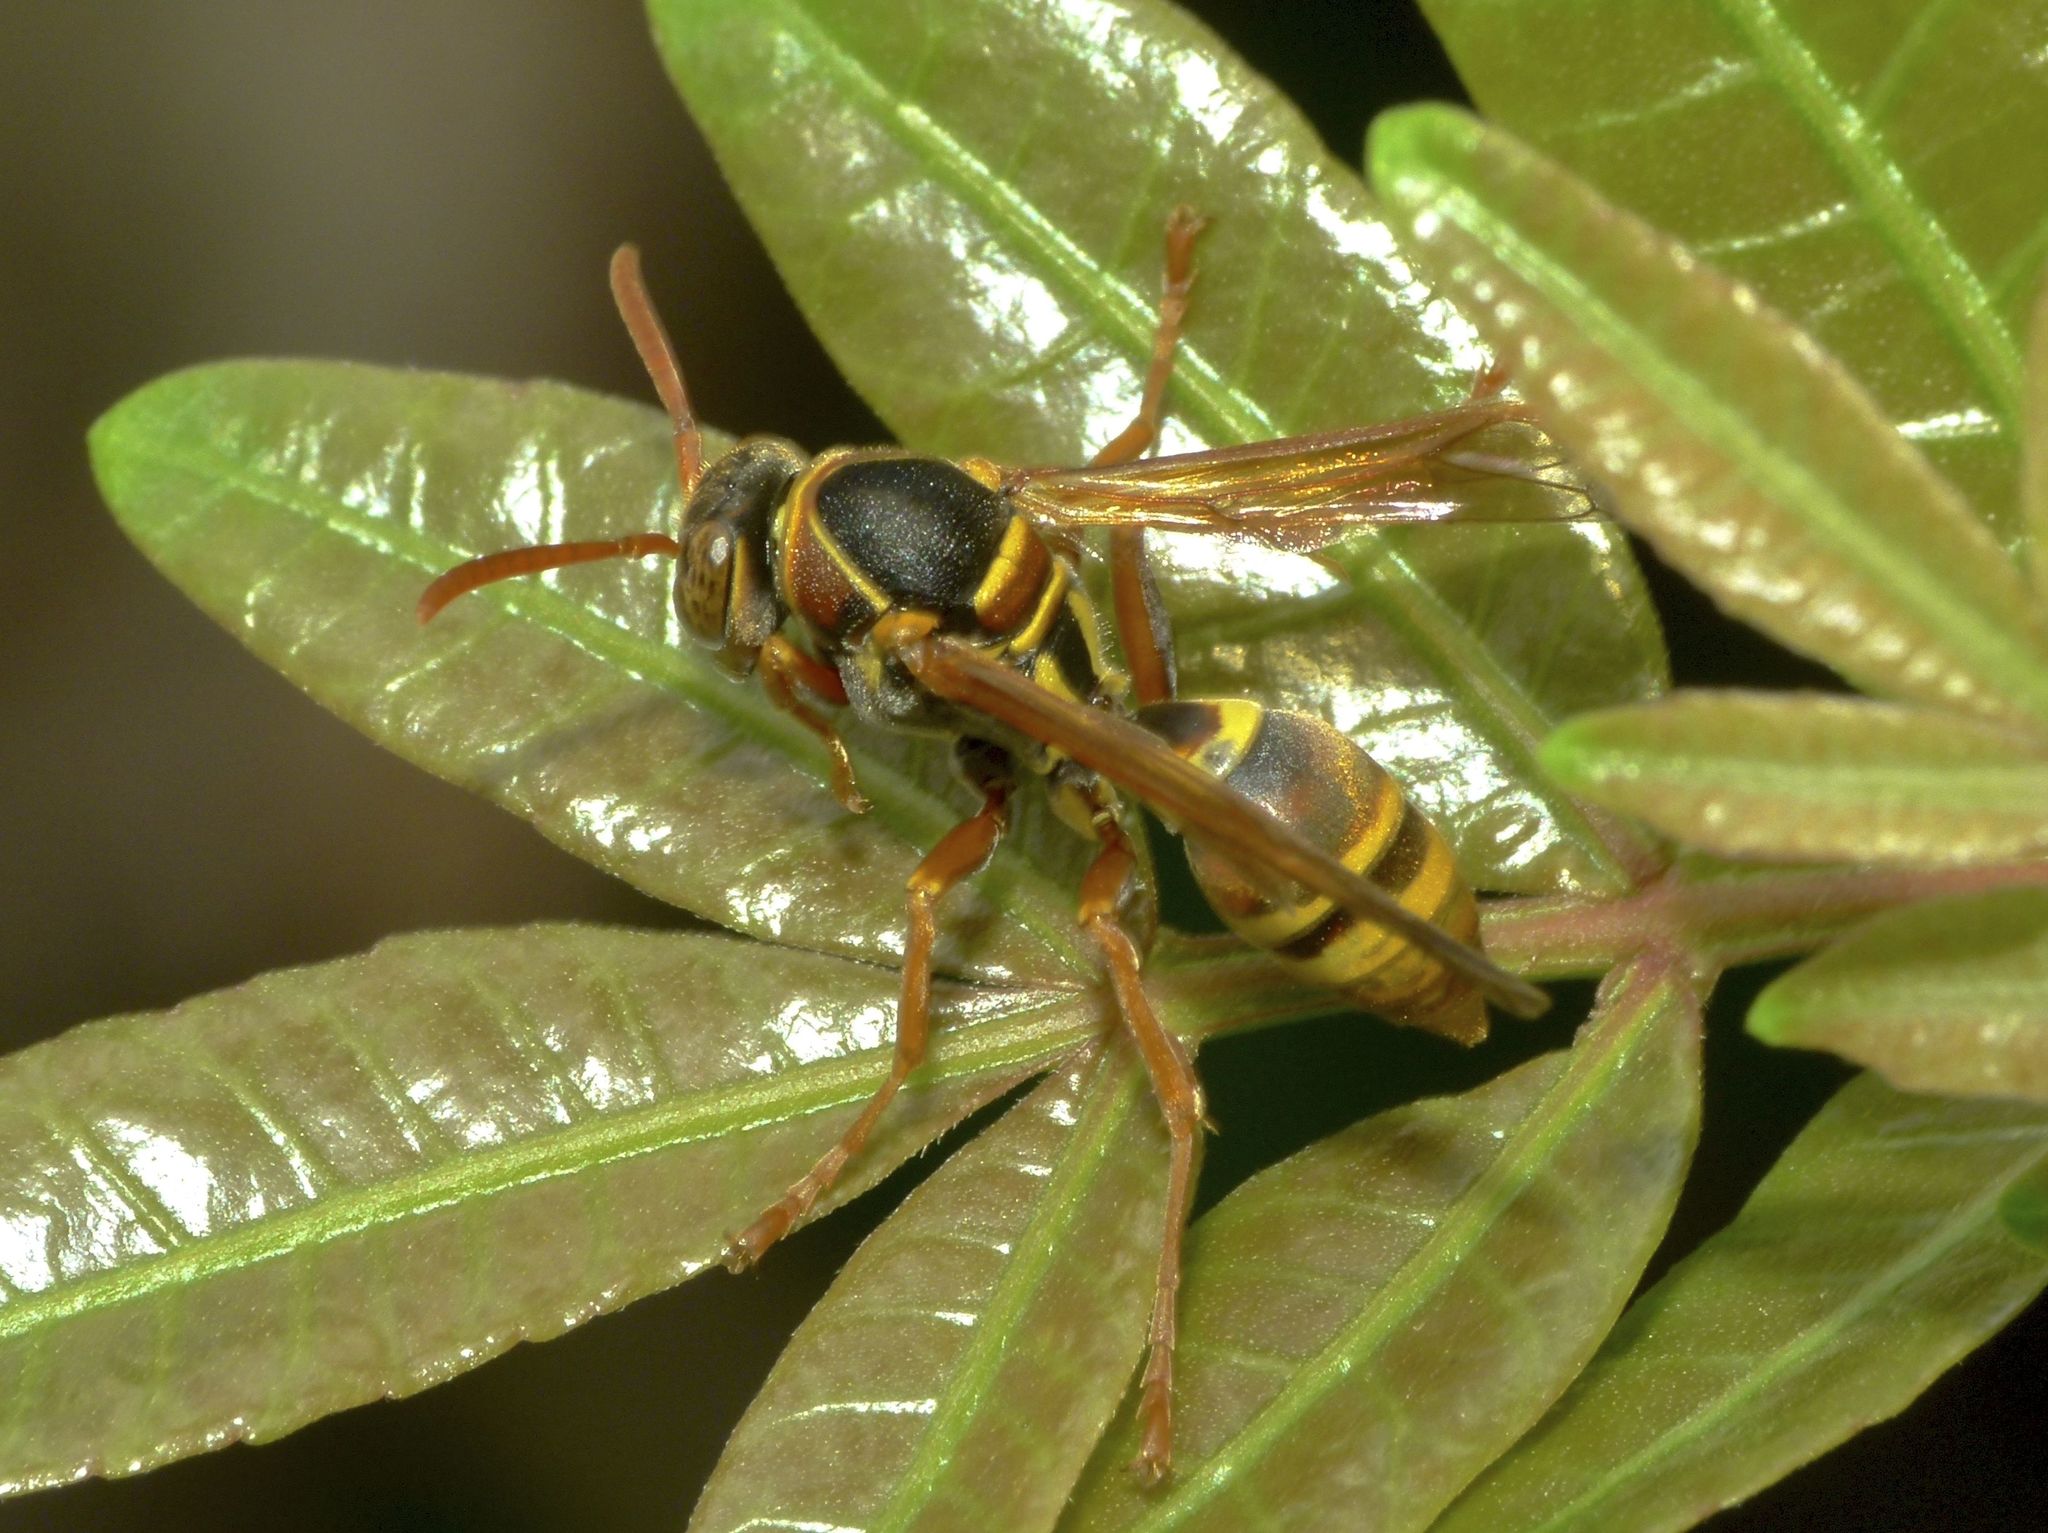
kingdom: Animalia
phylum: Arthropoda
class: Insecta
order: Hymenoptera
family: Eumenidae
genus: Polistes
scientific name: Polistes humilis
